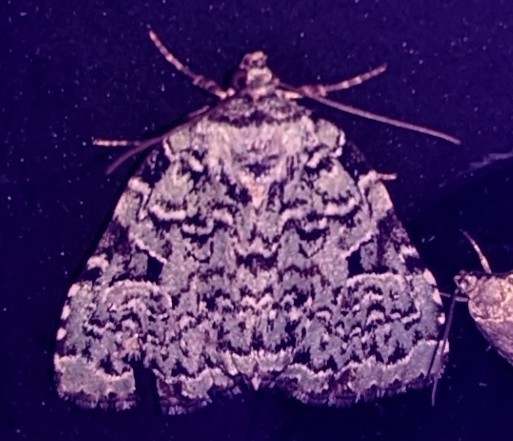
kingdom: Animalia
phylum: Arthropoda
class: Insecta
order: Lepidoptera
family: Noctuidae
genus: Leuconycta
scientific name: Leuconycta diphteroides
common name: Green leuconycta moth
